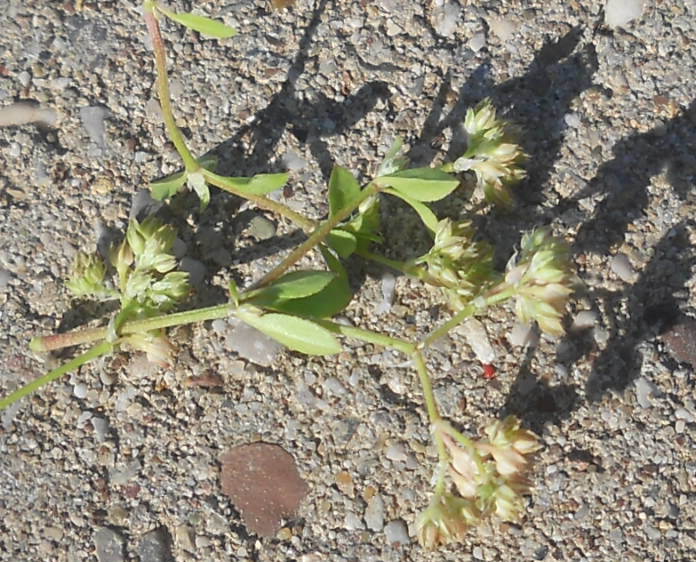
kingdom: Plantae
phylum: Tracheophyta
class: Magnoliopsida
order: Caryophyllales
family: Caryophyllaceae
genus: Polycarpon
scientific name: Polycarpon tetraphyllum
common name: Four-leaved all-seed
